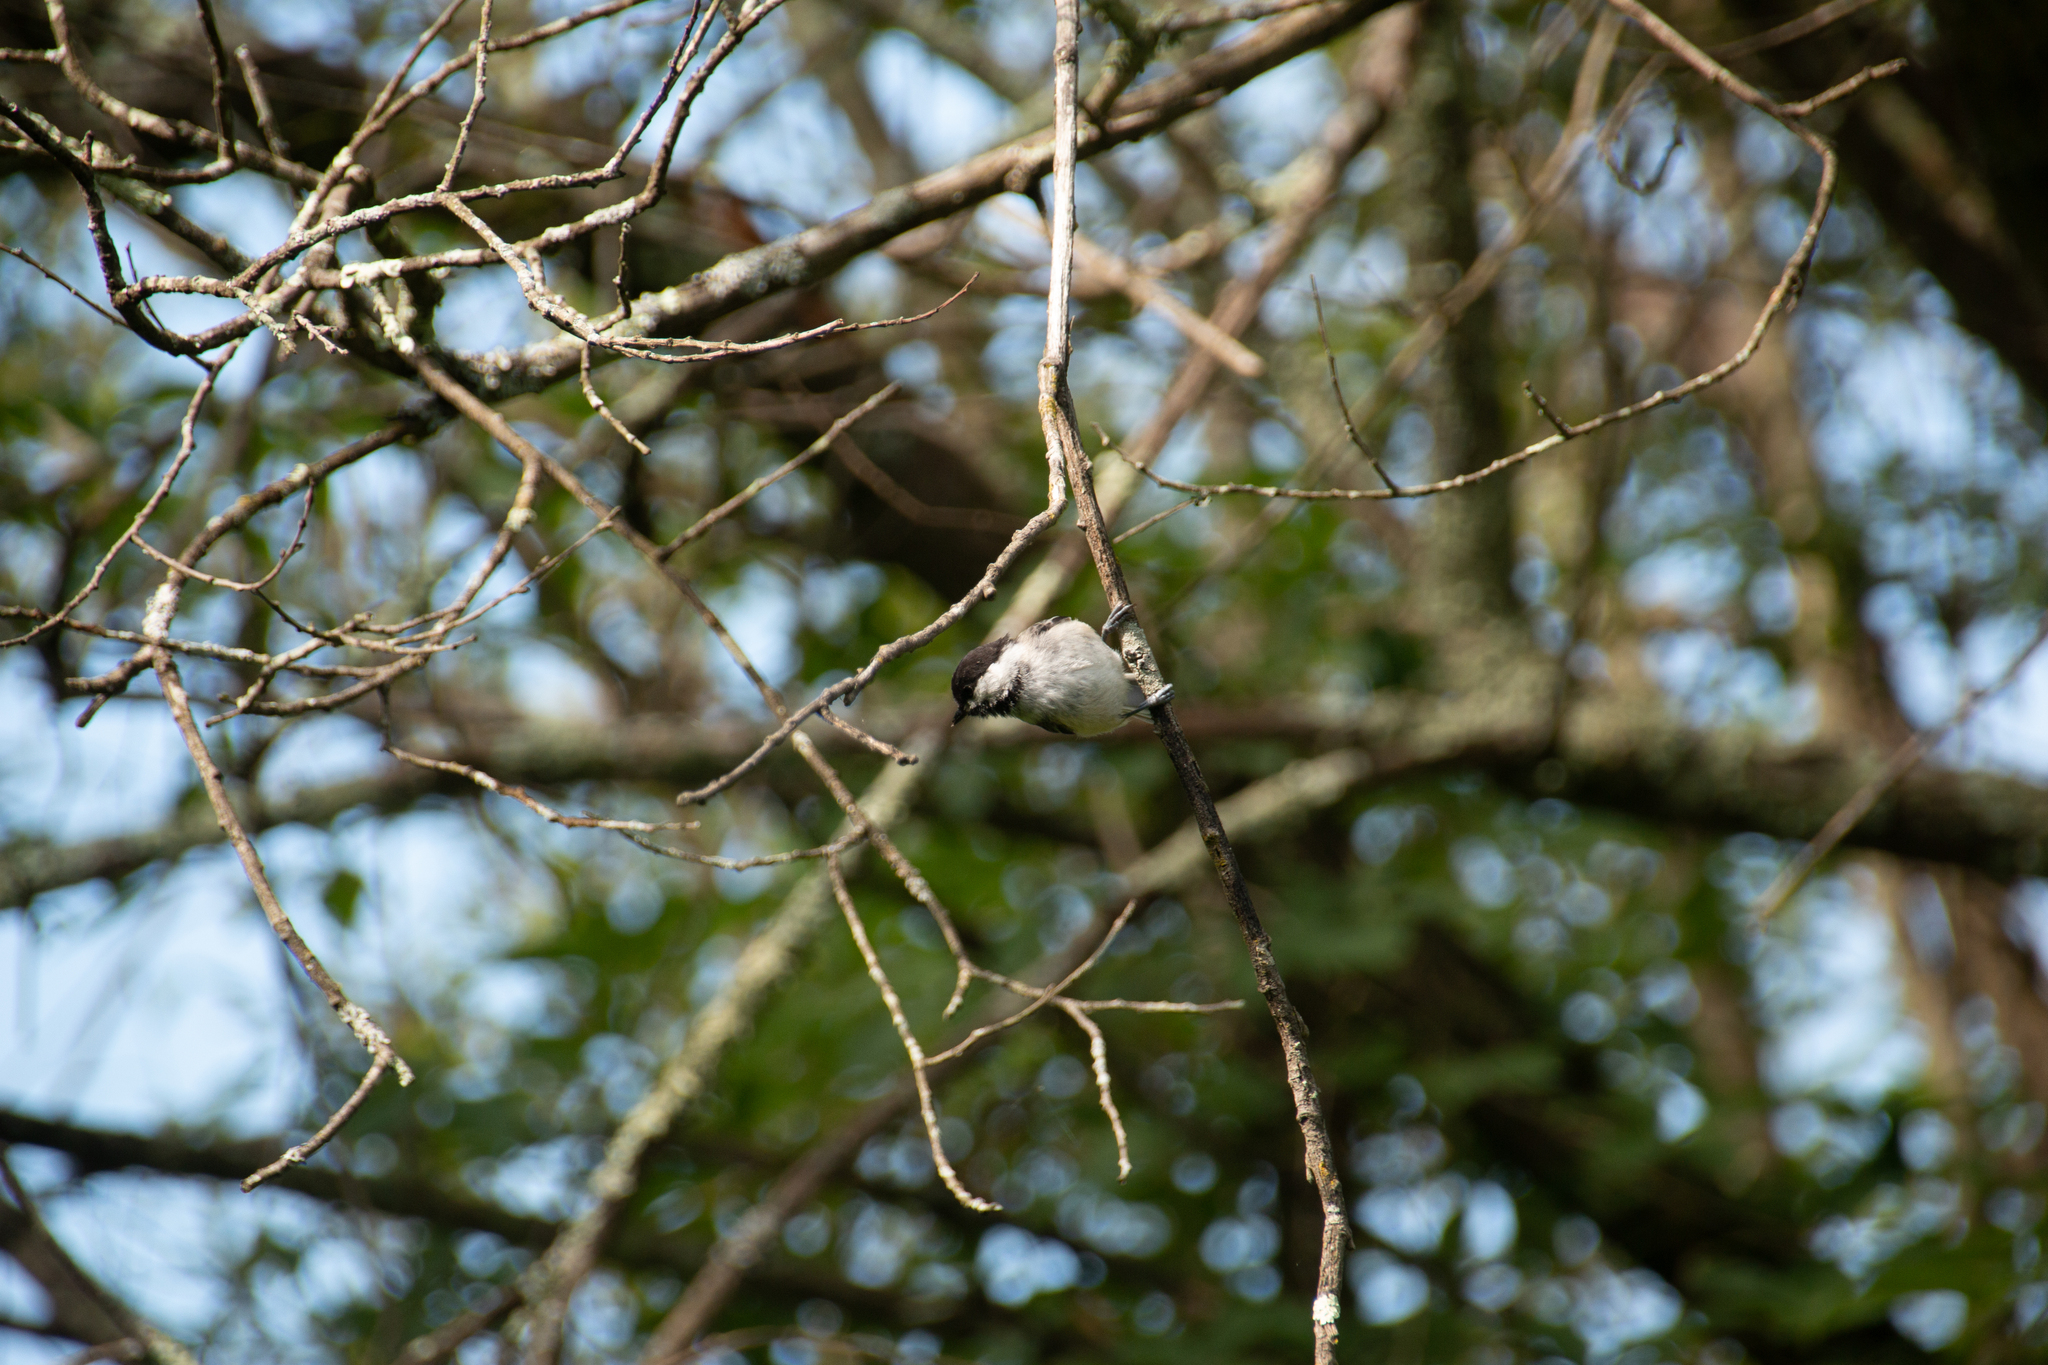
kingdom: Animalia
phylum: Chordata
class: Aves
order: Passeriformes
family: Paridae
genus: Poecile
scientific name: Poecile atricapillus
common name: Black-capped chickadee
